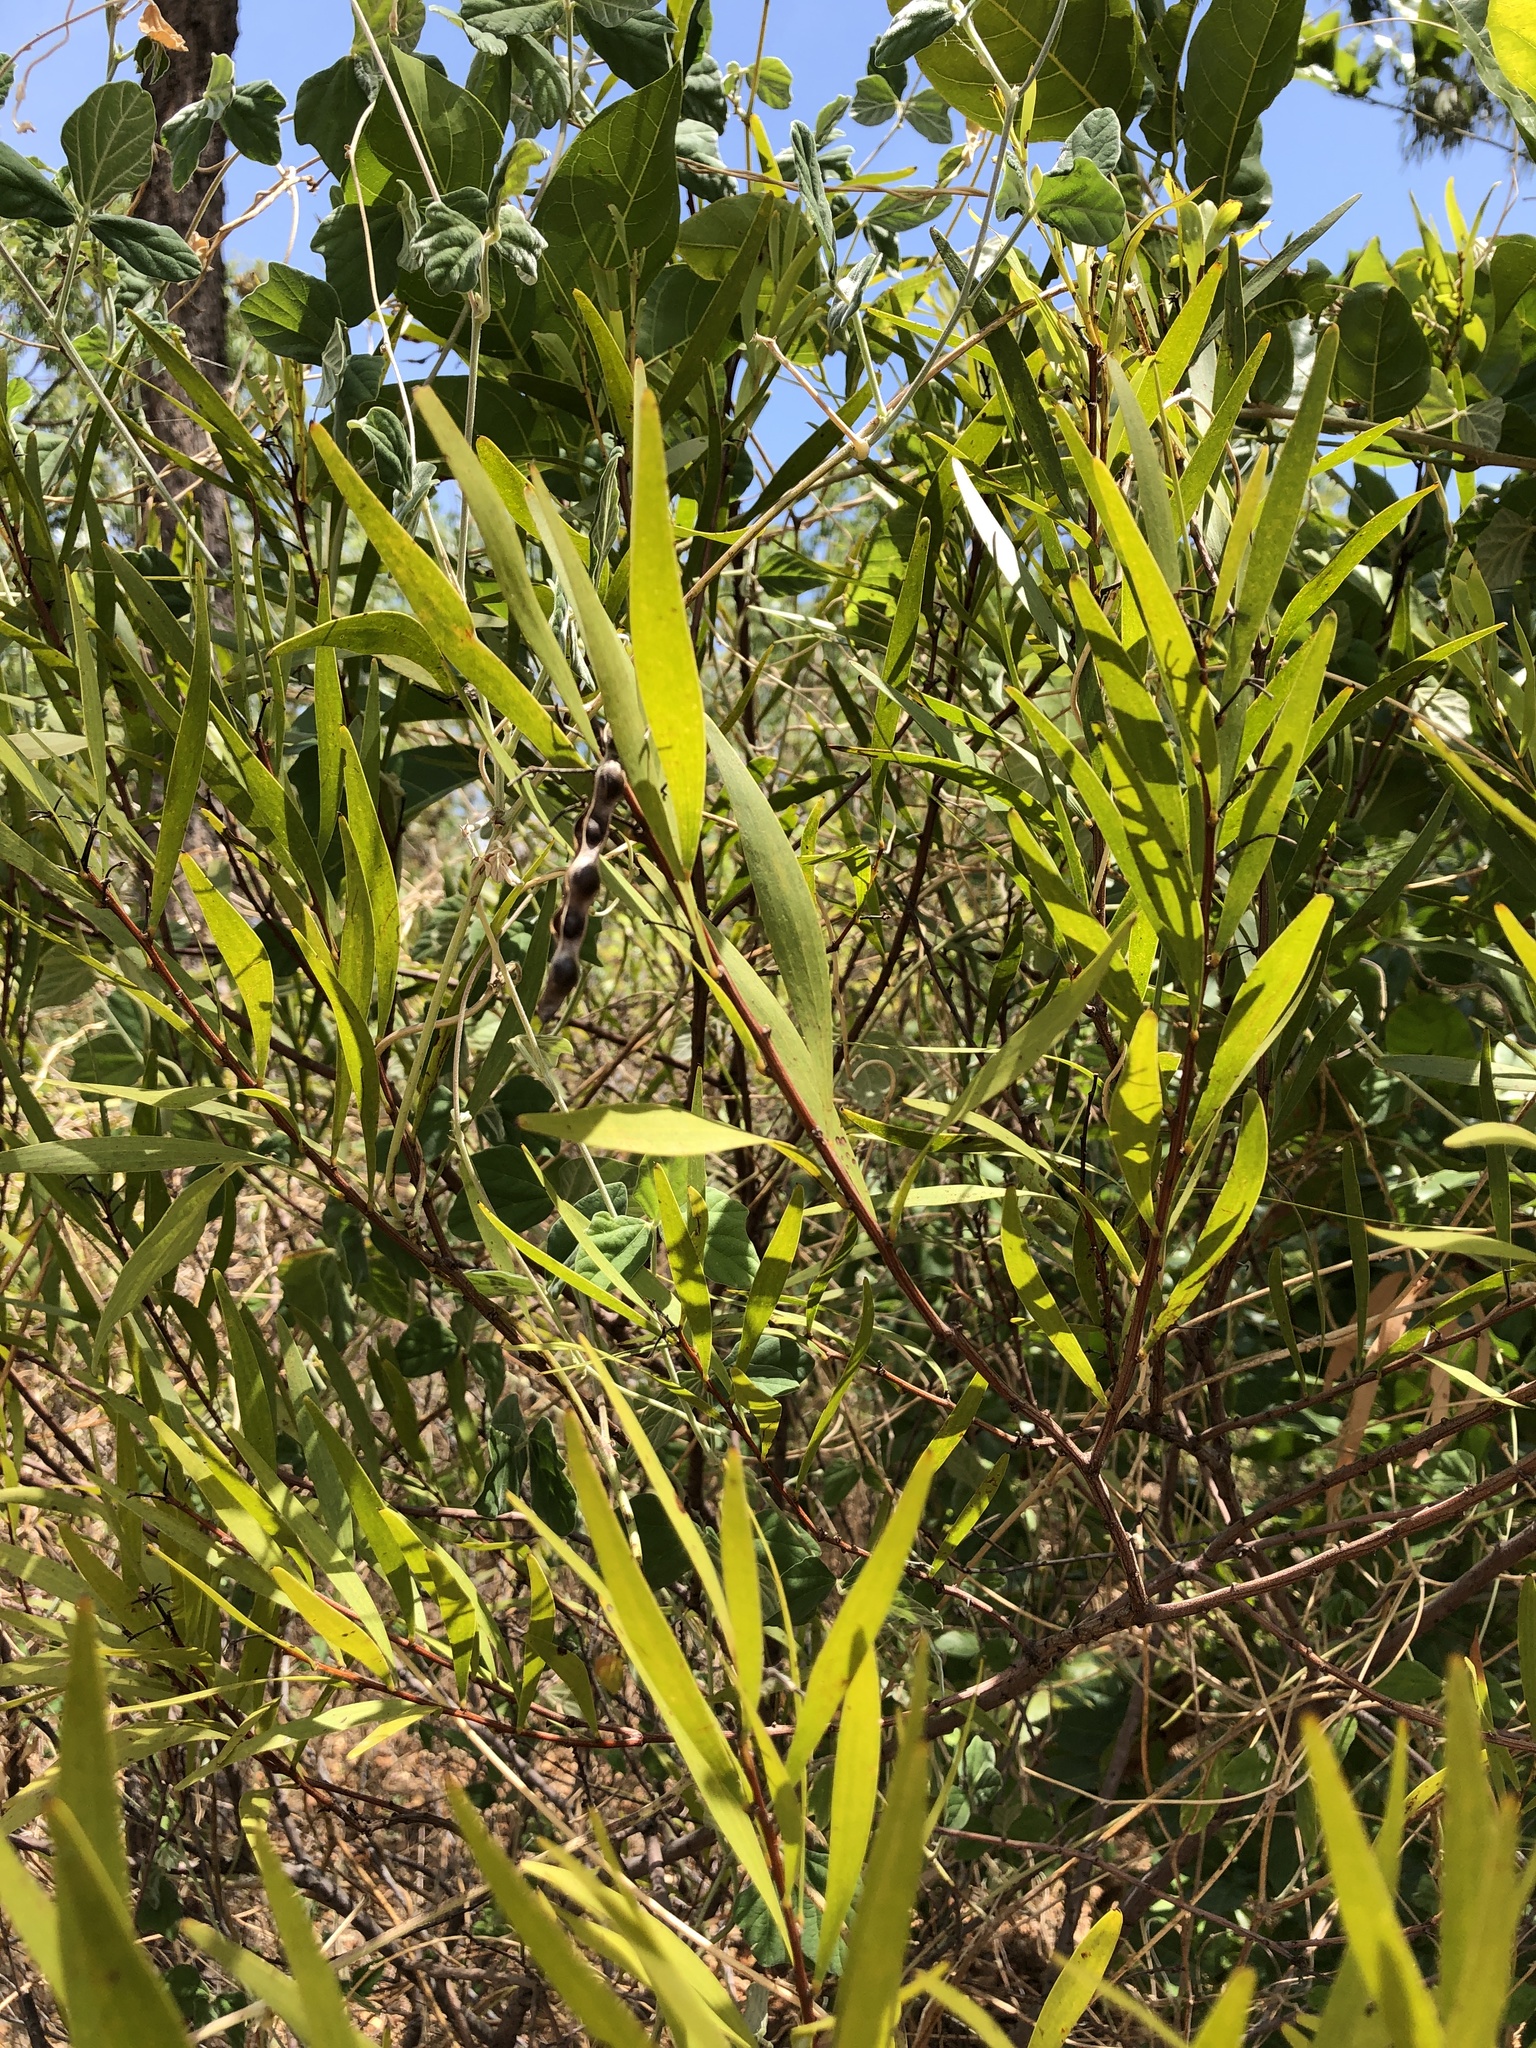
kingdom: Plantae
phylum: Tracheophyta
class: Magnoliopsida
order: Fabales
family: Fabaceae
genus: Acacia
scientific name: Acacia simsii
